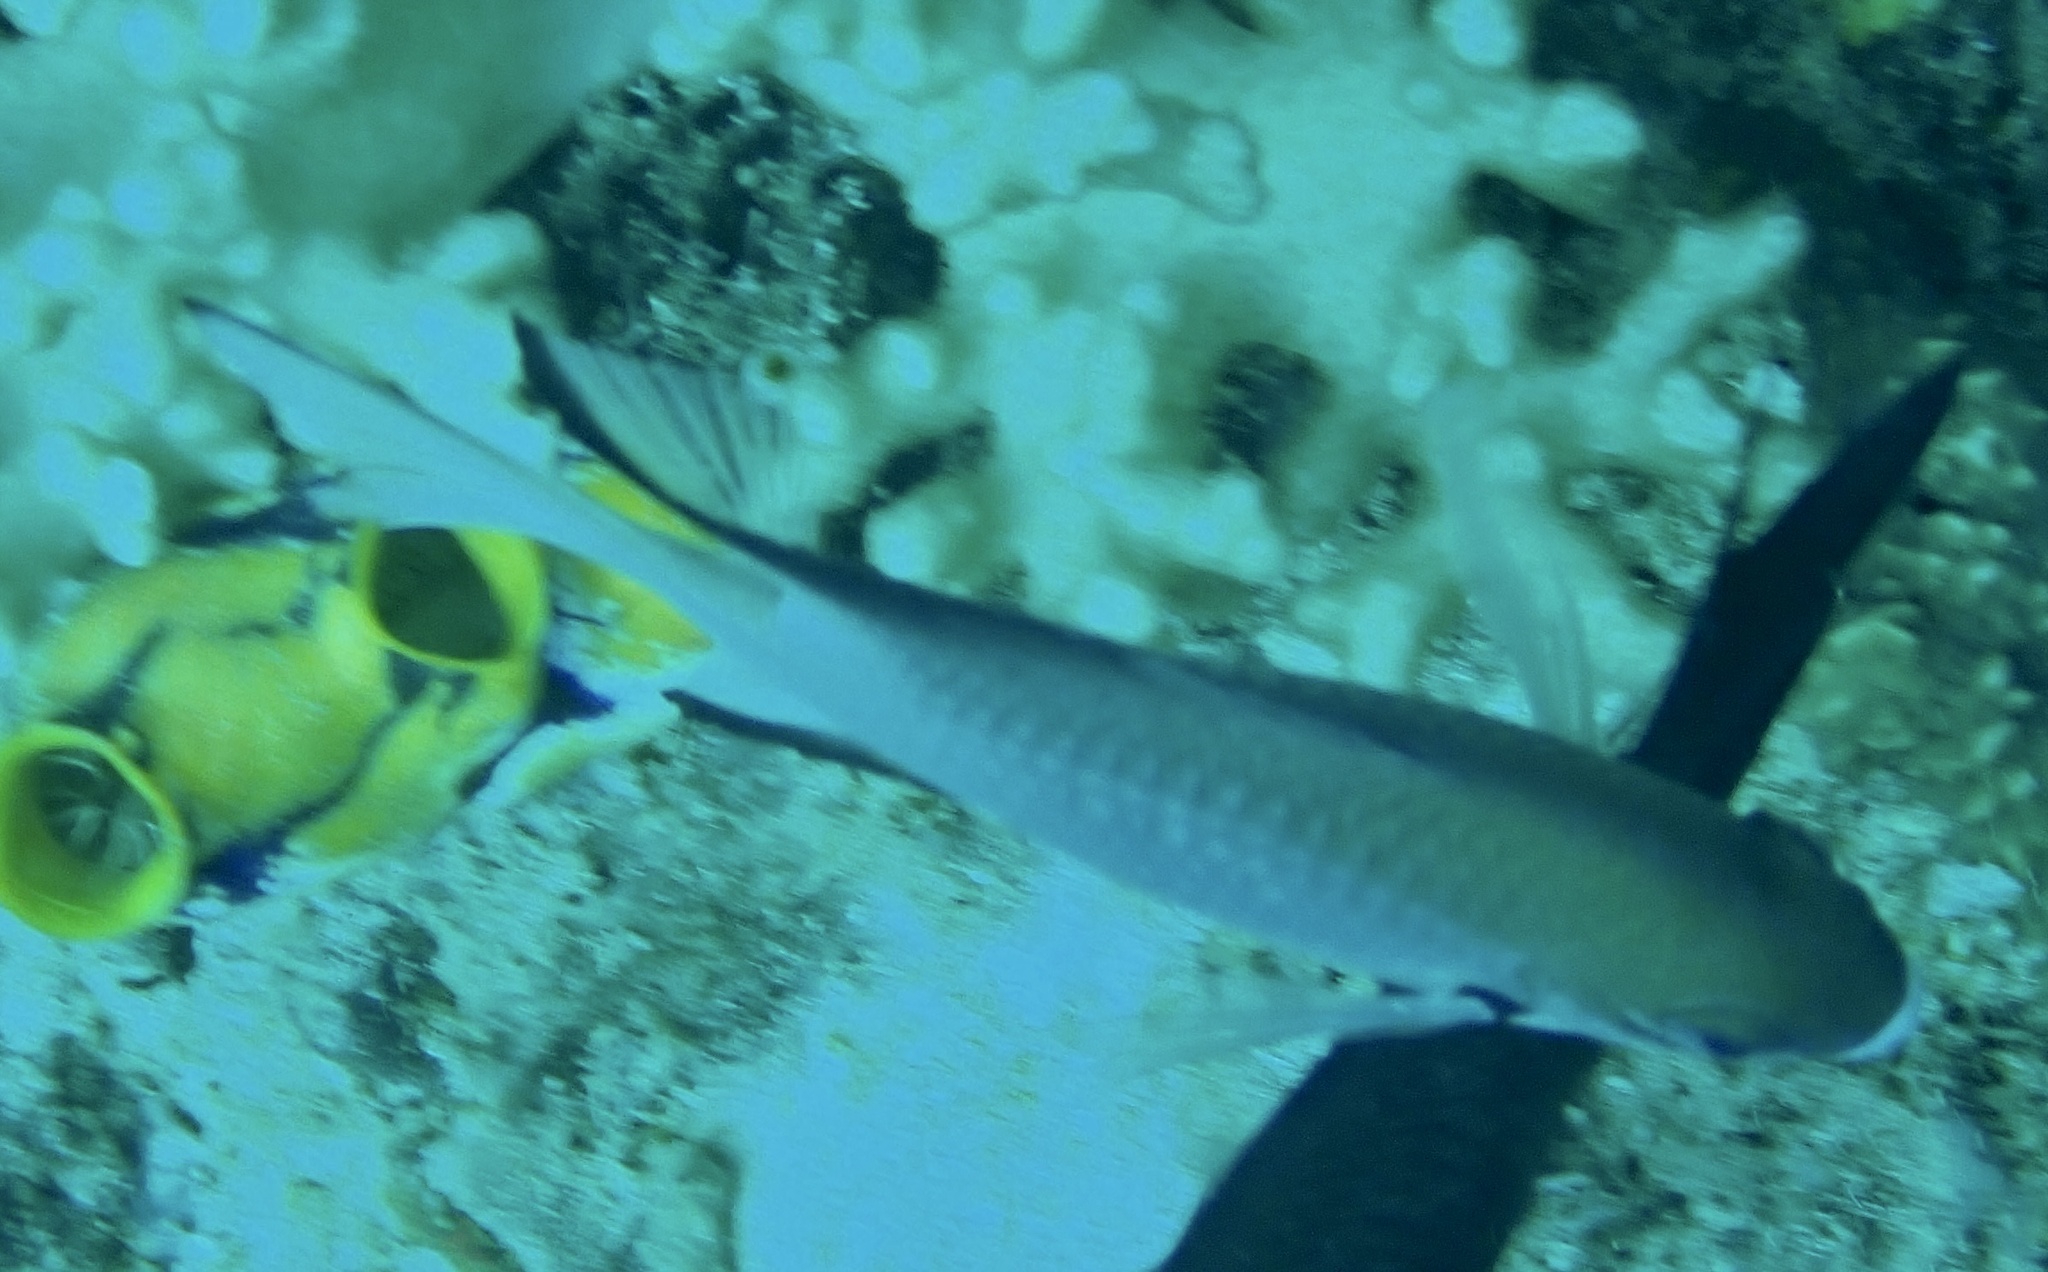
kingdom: Animalia
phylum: Chordata
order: Perciformes
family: Pomacentridae
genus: Amblyglyphidodon
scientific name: Amblyglyphidodon leucogaster
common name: White-belly damsel
